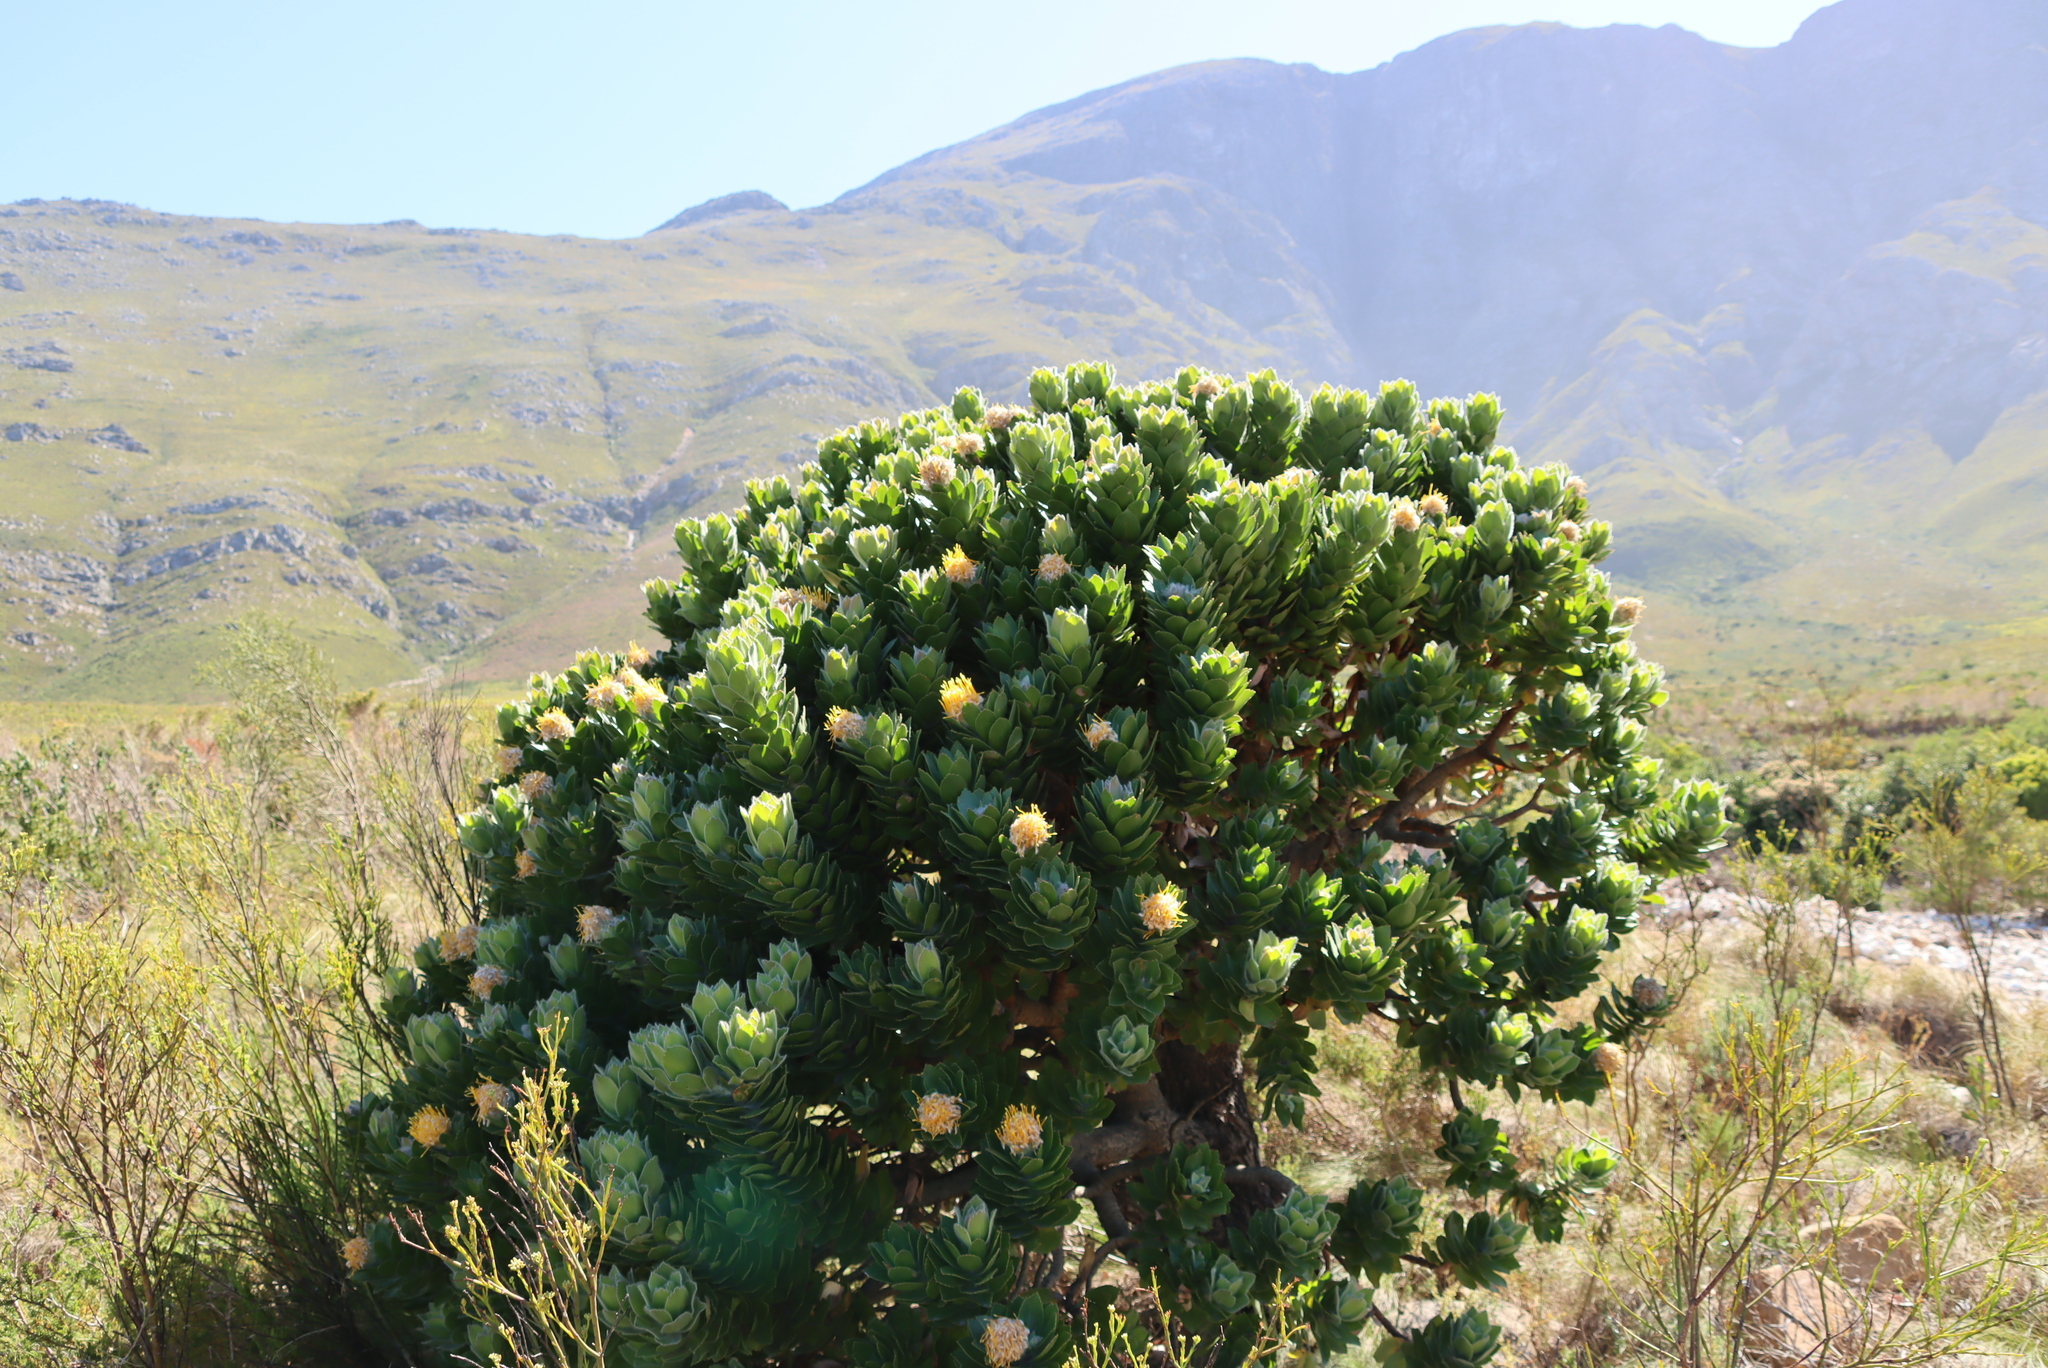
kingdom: Plantae
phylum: Tracheophyta
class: Magnoliopsida
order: Proteales
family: Proteaceae
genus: Leucospermum
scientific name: Leucospermum vestitum
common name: Silky-hair pincushion
